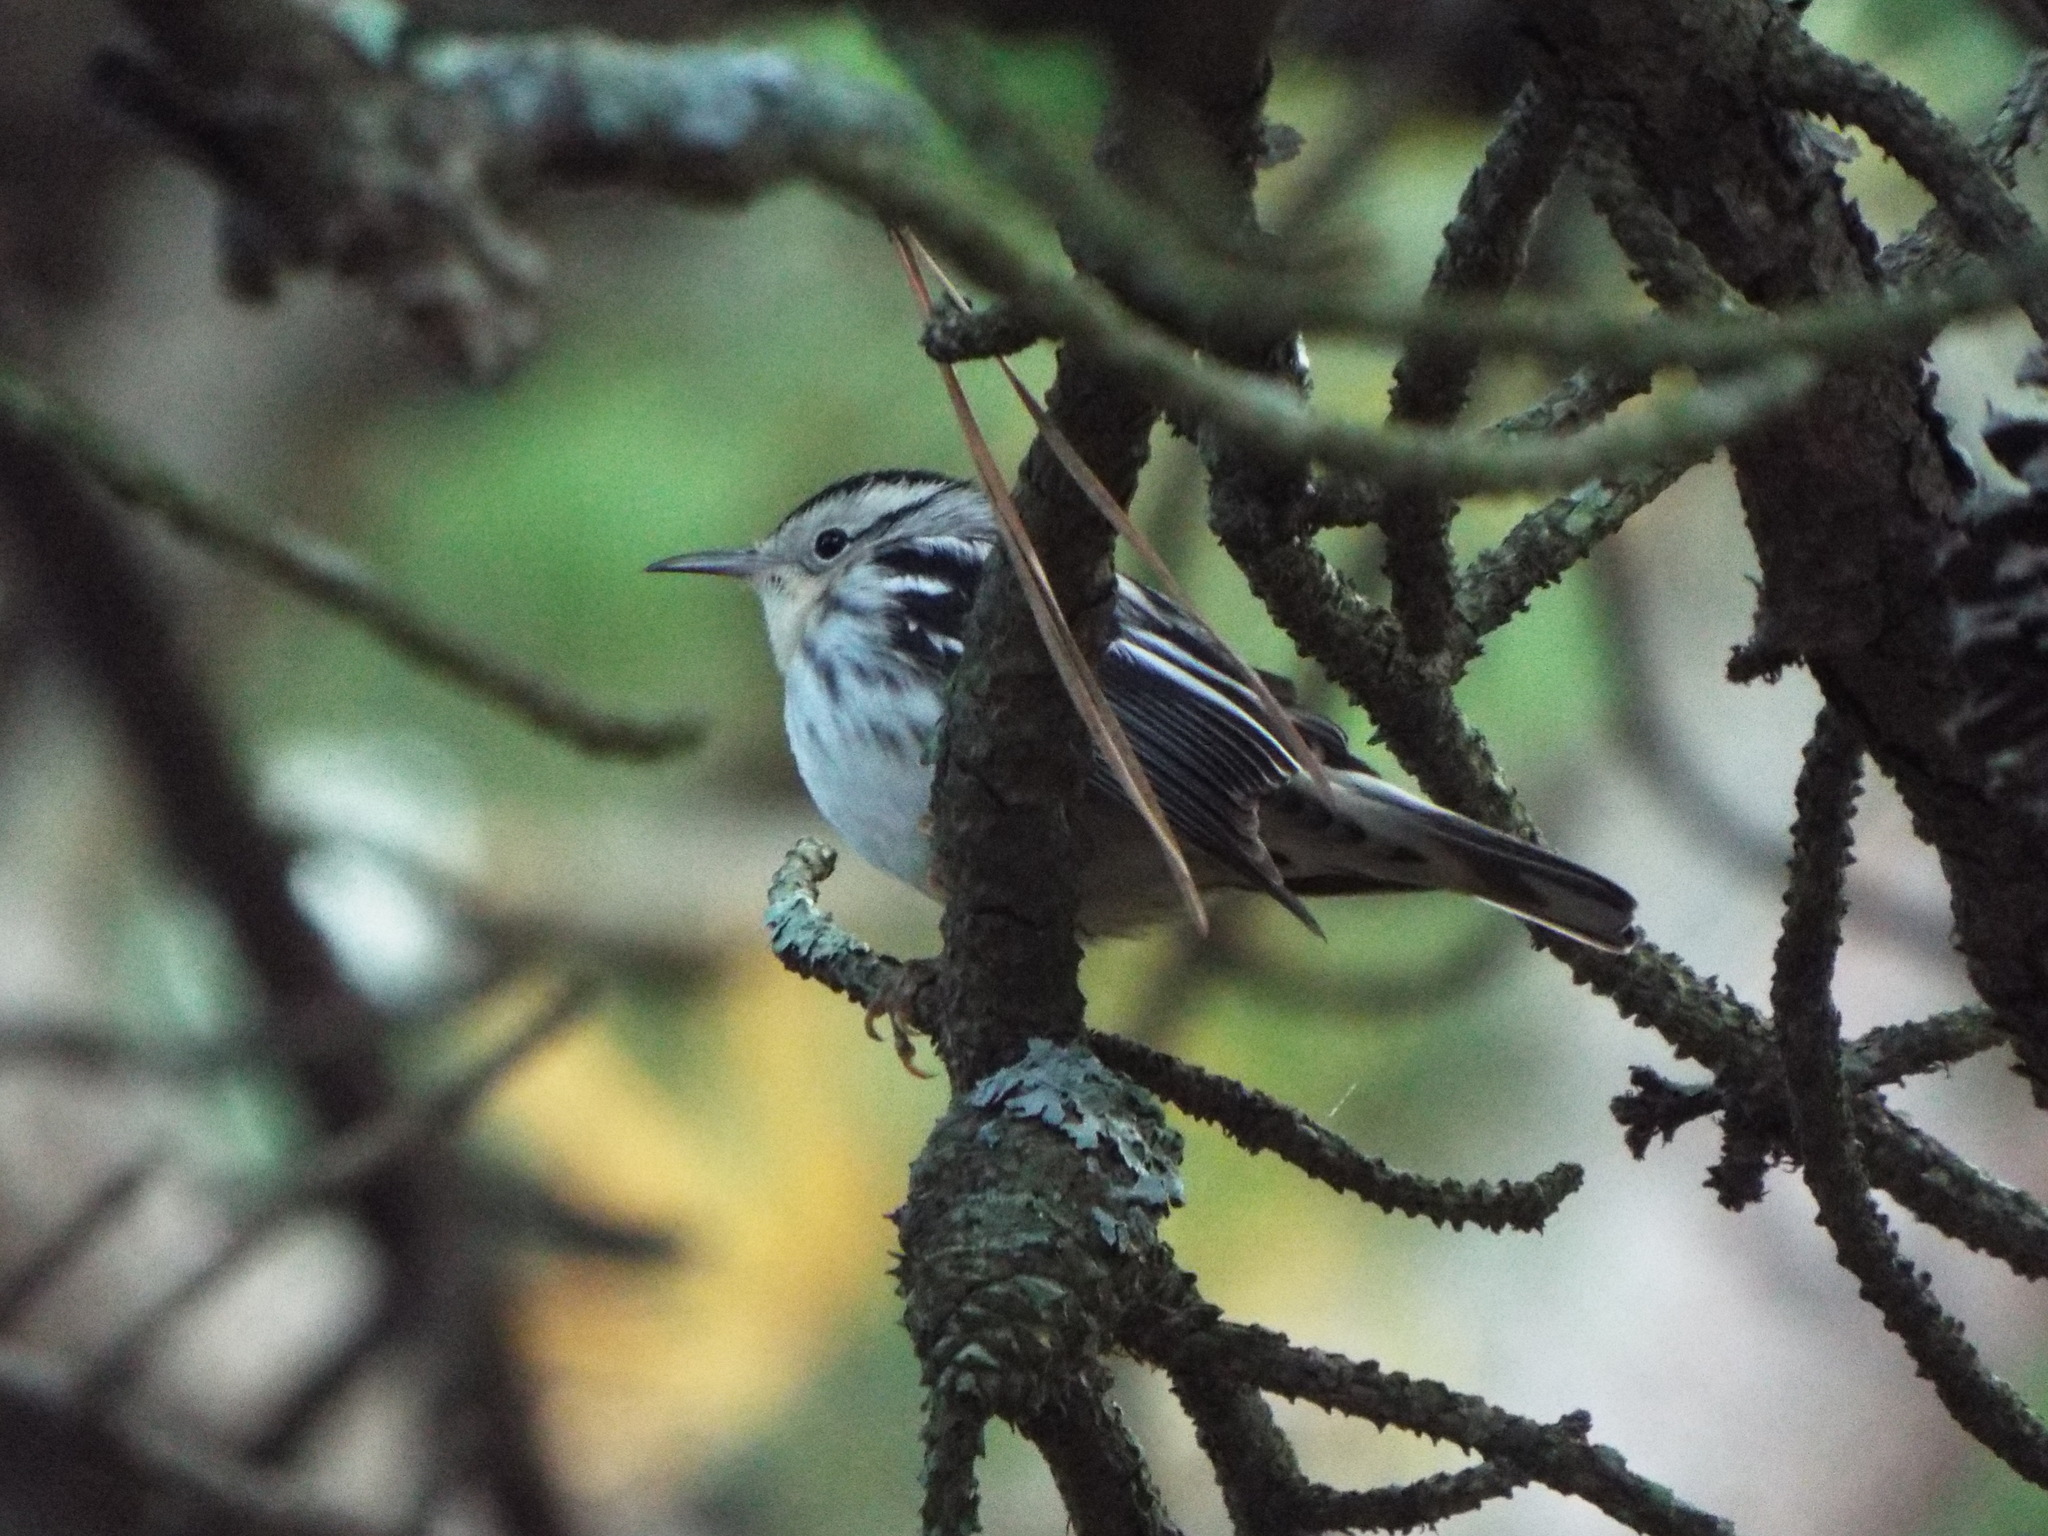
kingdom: Animalia
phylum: Chordata
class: Aves
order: Passeriformes
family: Parulidae
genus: Mniotilta
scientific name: Mniotilta varia
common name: Black-and-white warbler
